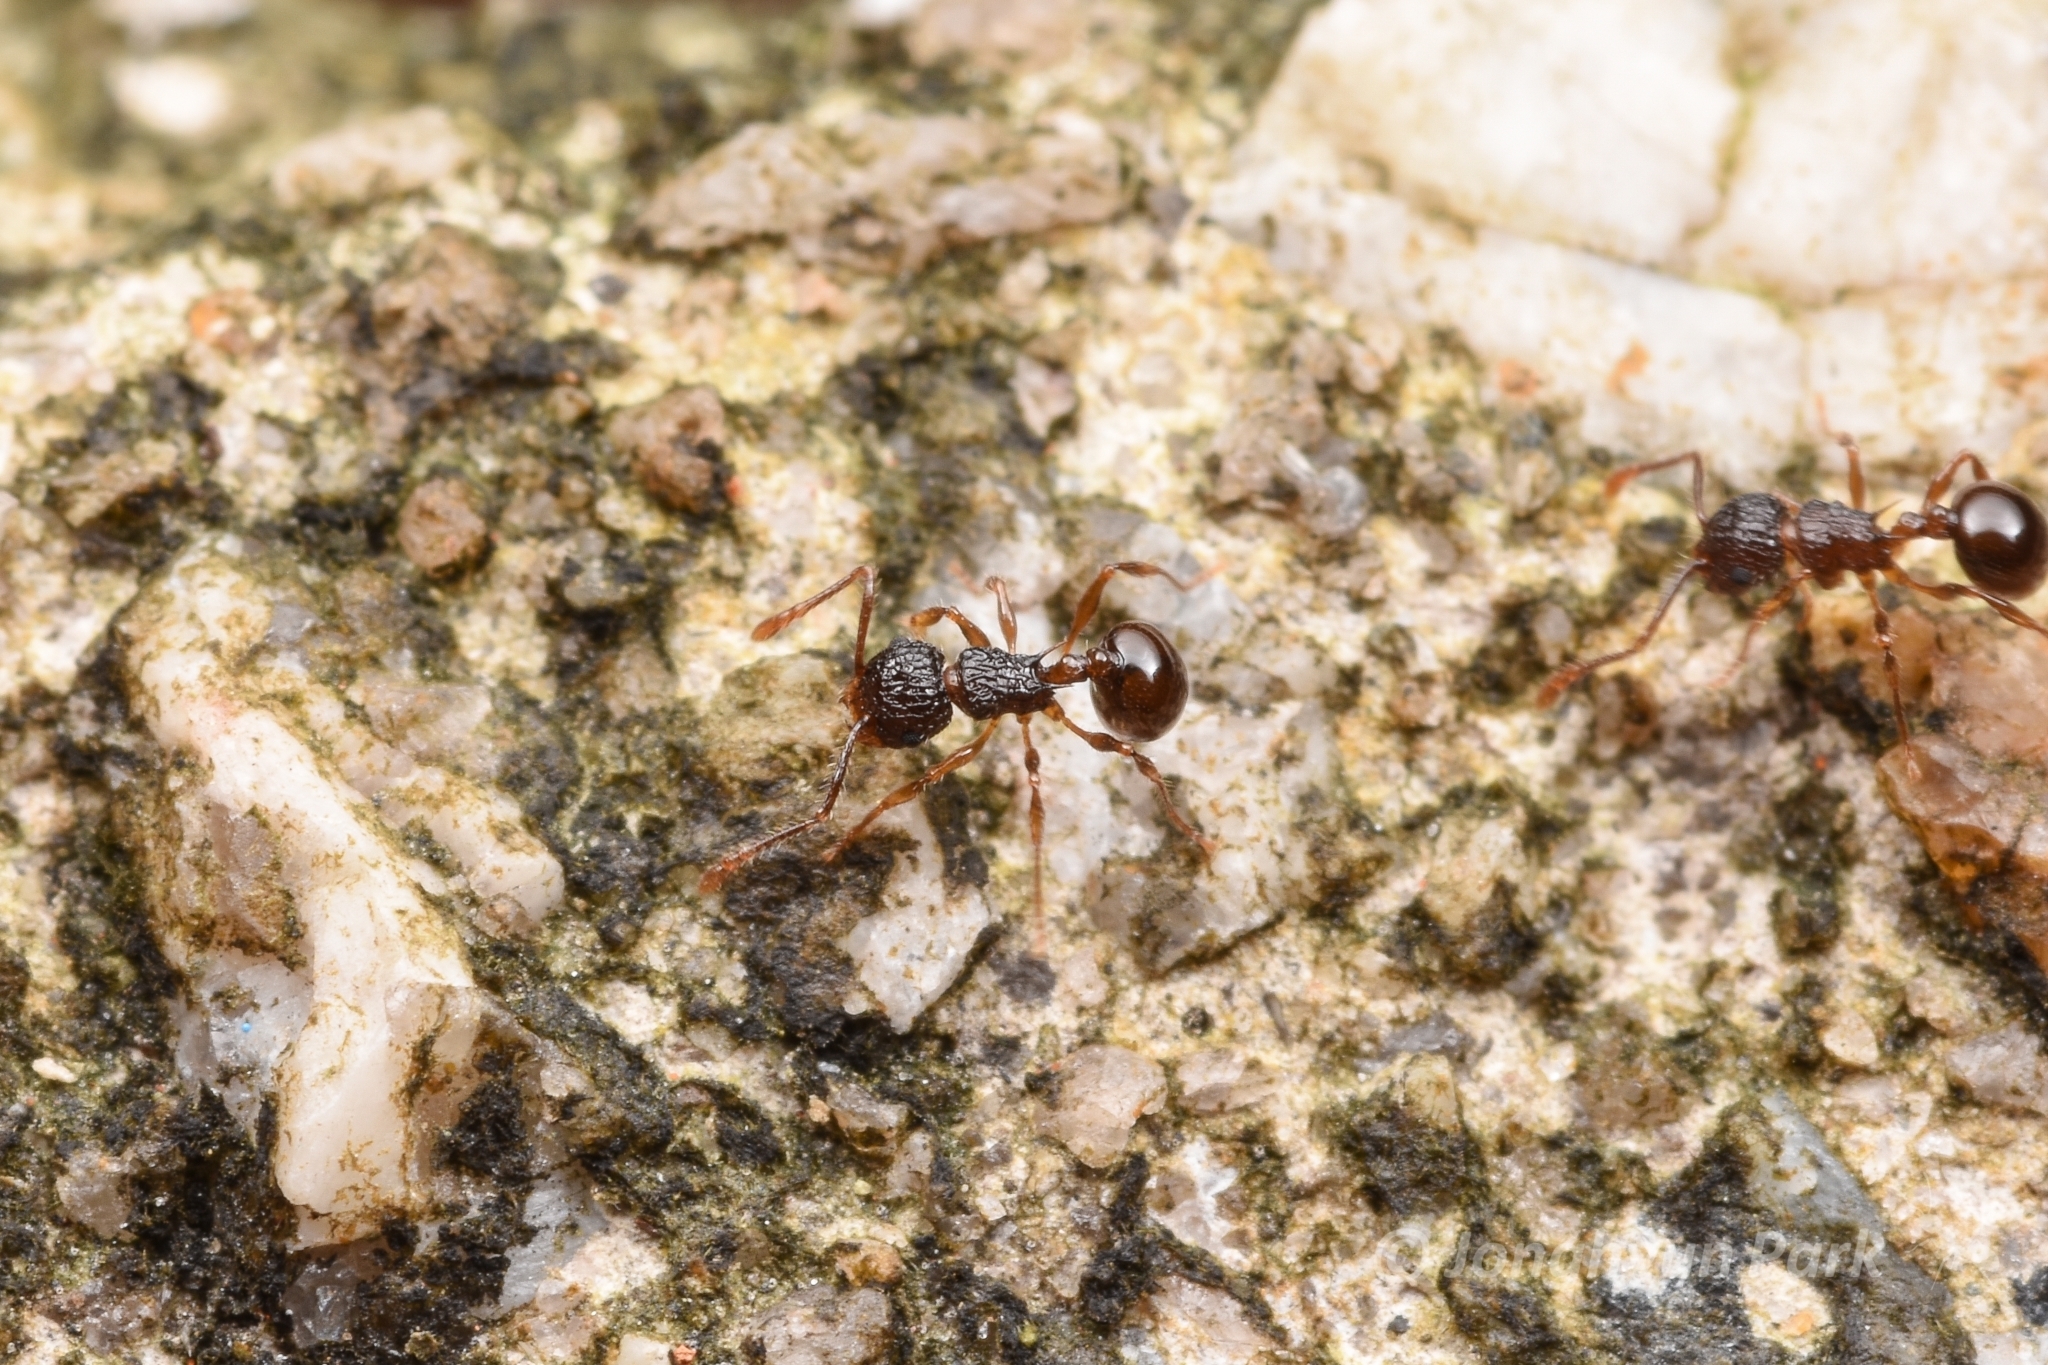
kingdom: Animalia
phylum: Arthropoda
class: Insecta
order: Hymenoptera
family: Formicidae
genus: Pristomyrmex
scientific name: Pristomyrmex punctatus
